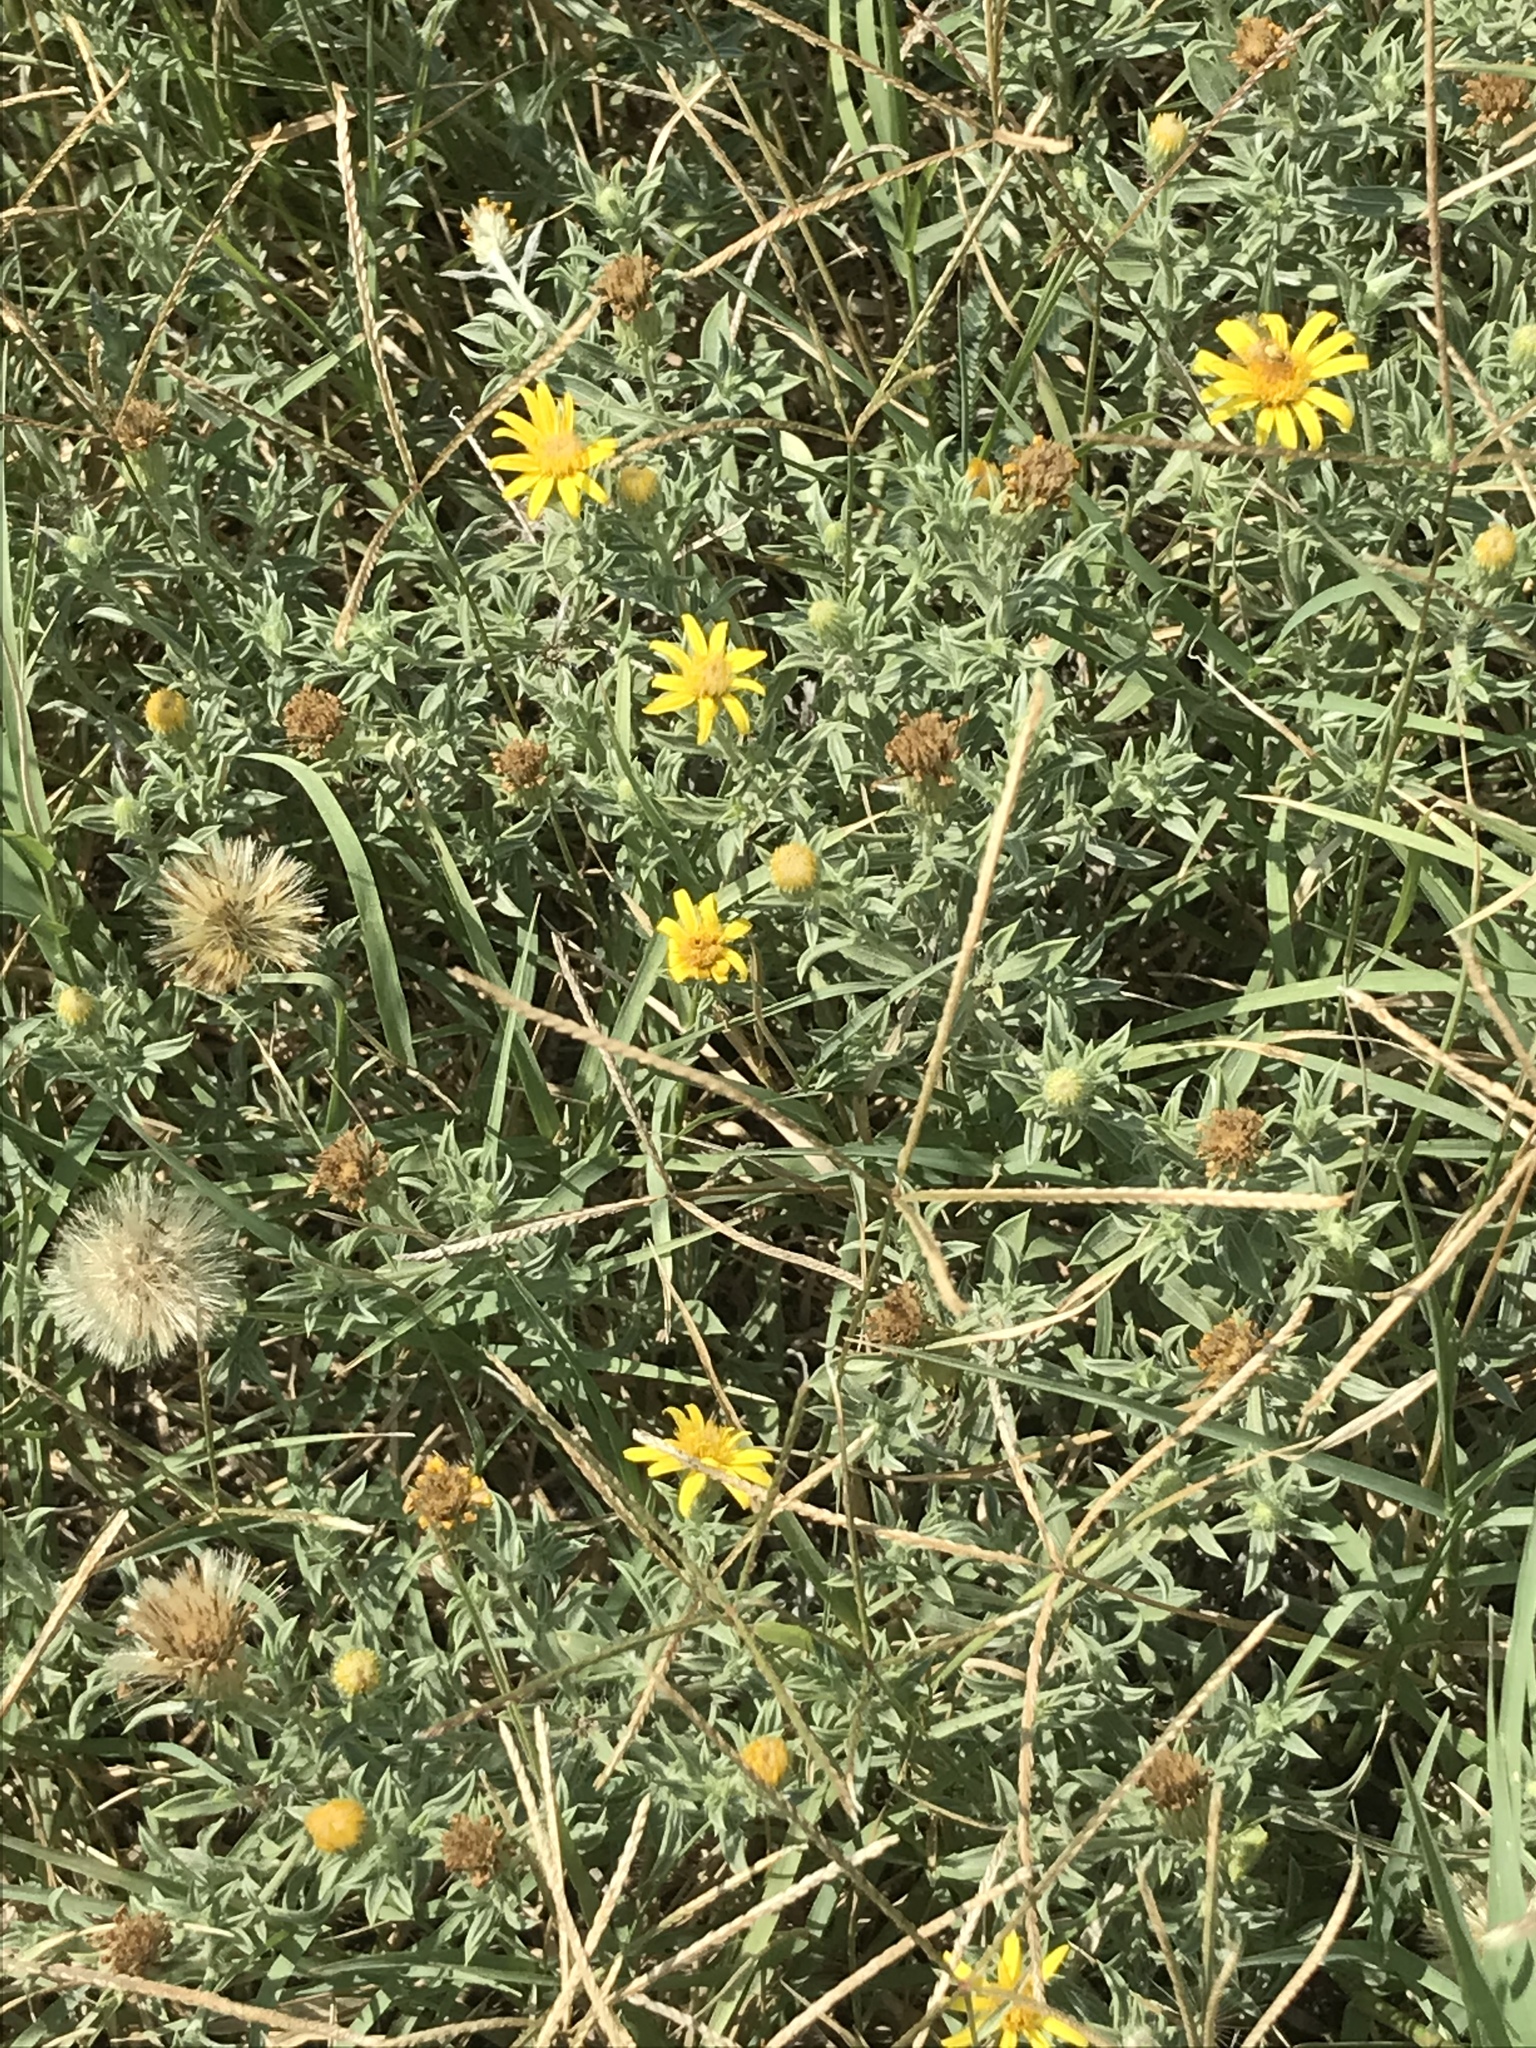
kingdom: Plantae
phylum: Tracheophyta
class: Magnoliopsida
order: Asterales
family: Asteraceae
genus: Heterotheca
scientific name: Heterotheca canescens
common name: Hoary golden-aster
